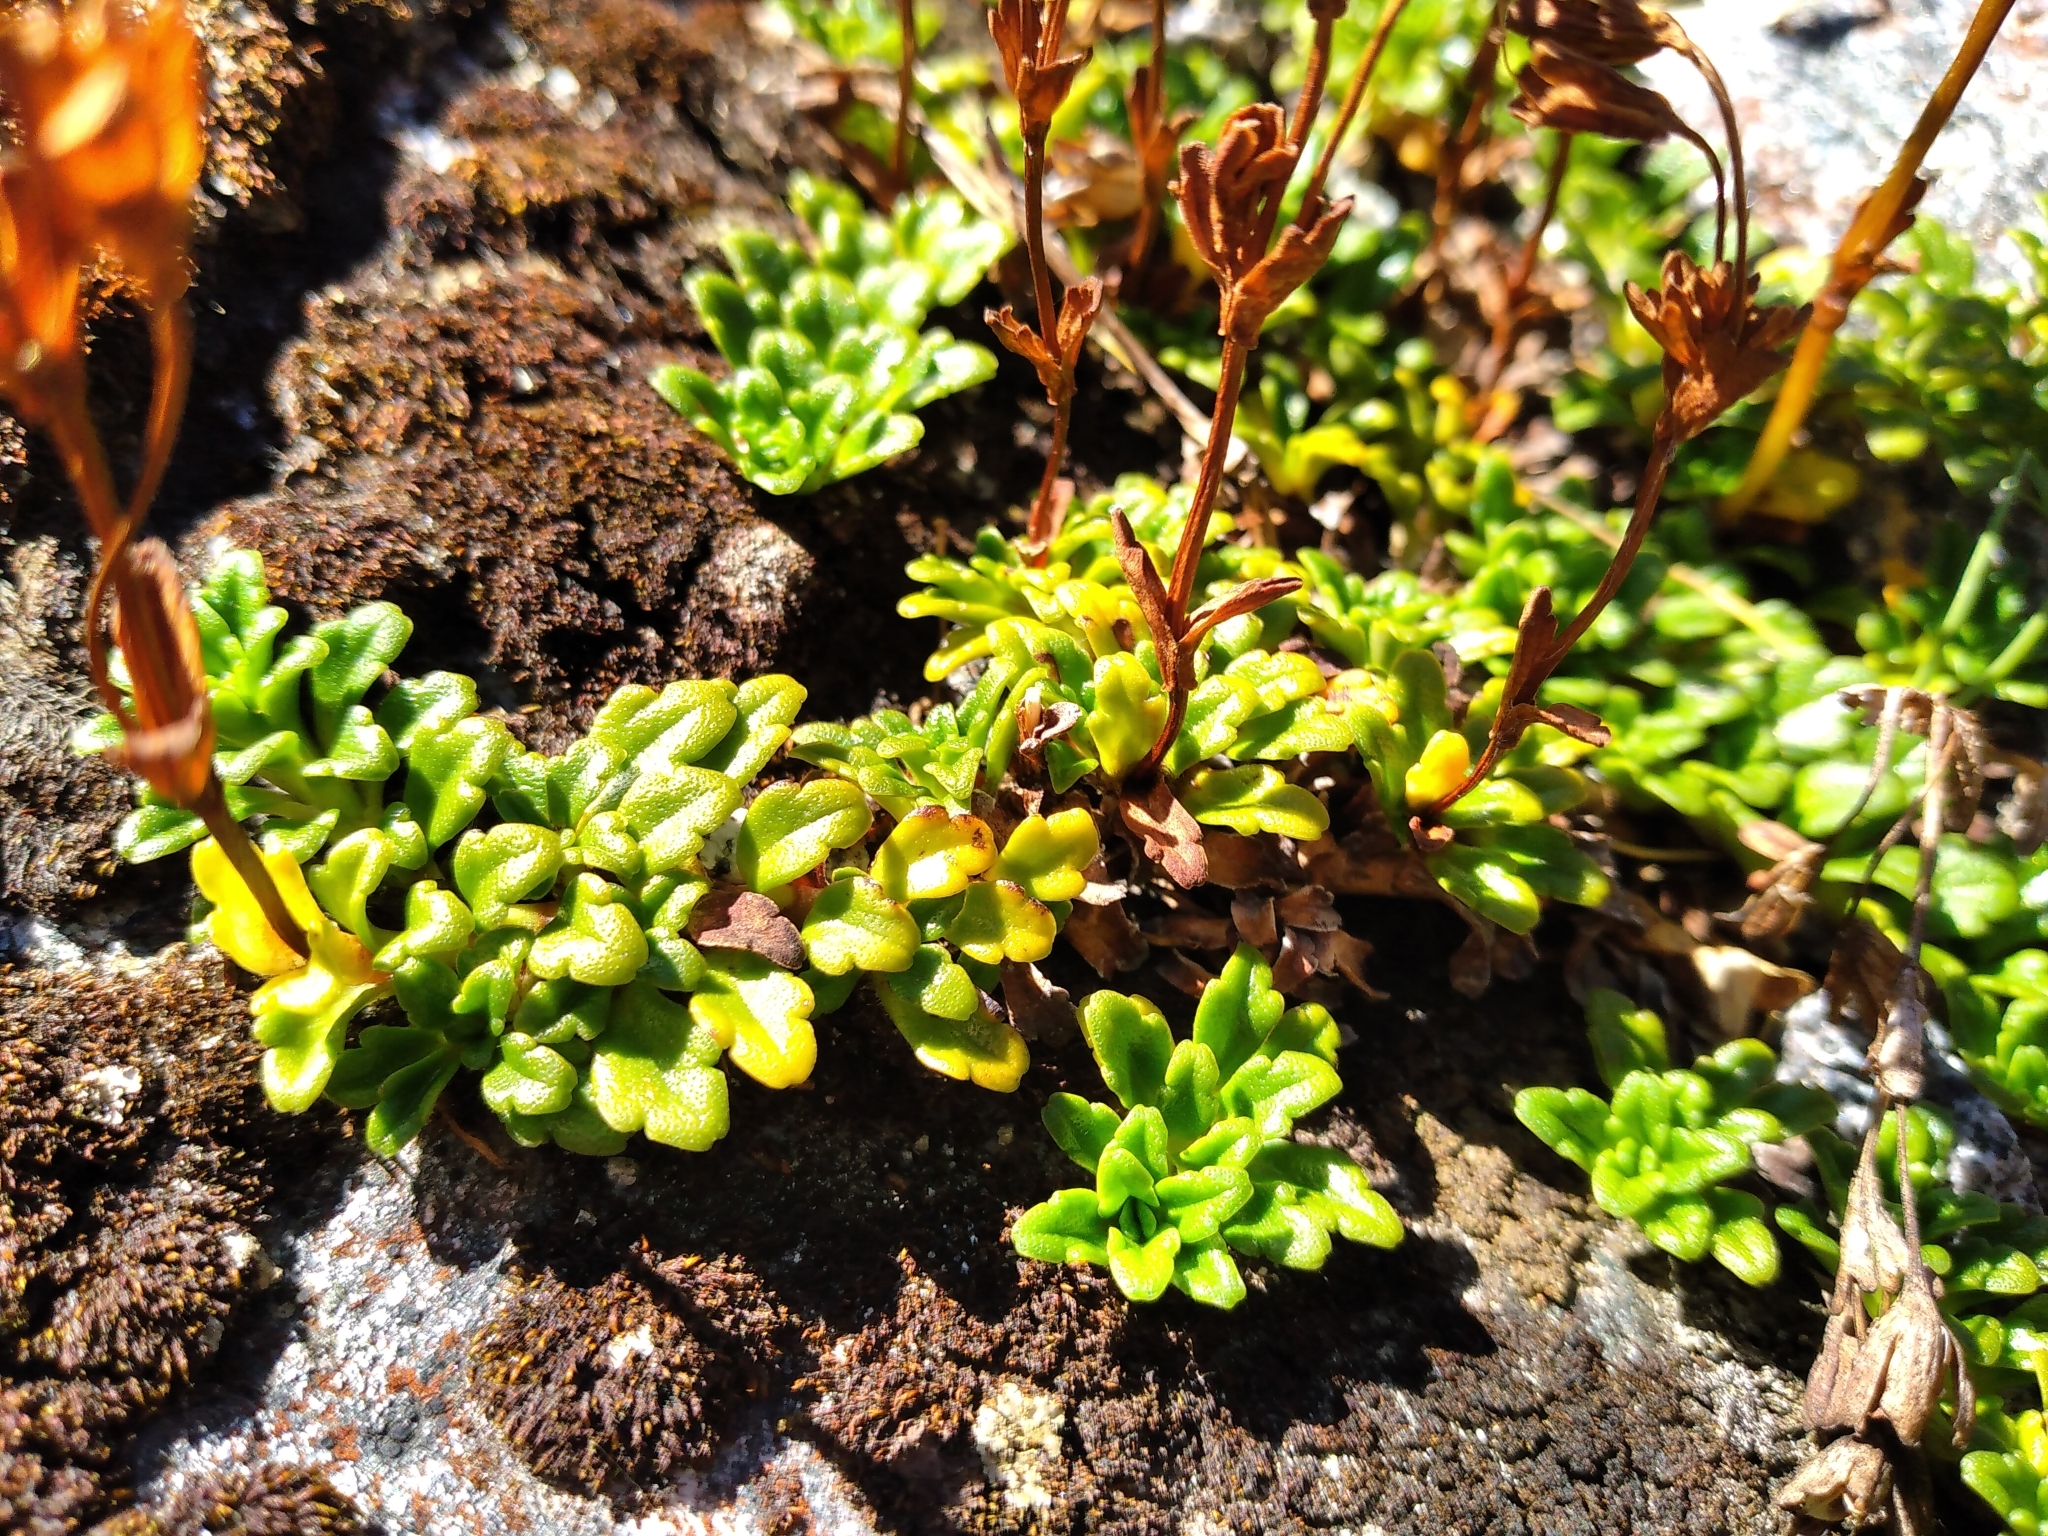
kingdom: Plantae
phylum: Tracheophyta
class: Magnoliopsida
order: Lamiales
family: Plantaginaceae
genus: Ourisia
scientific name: Ourisia caespitosa
